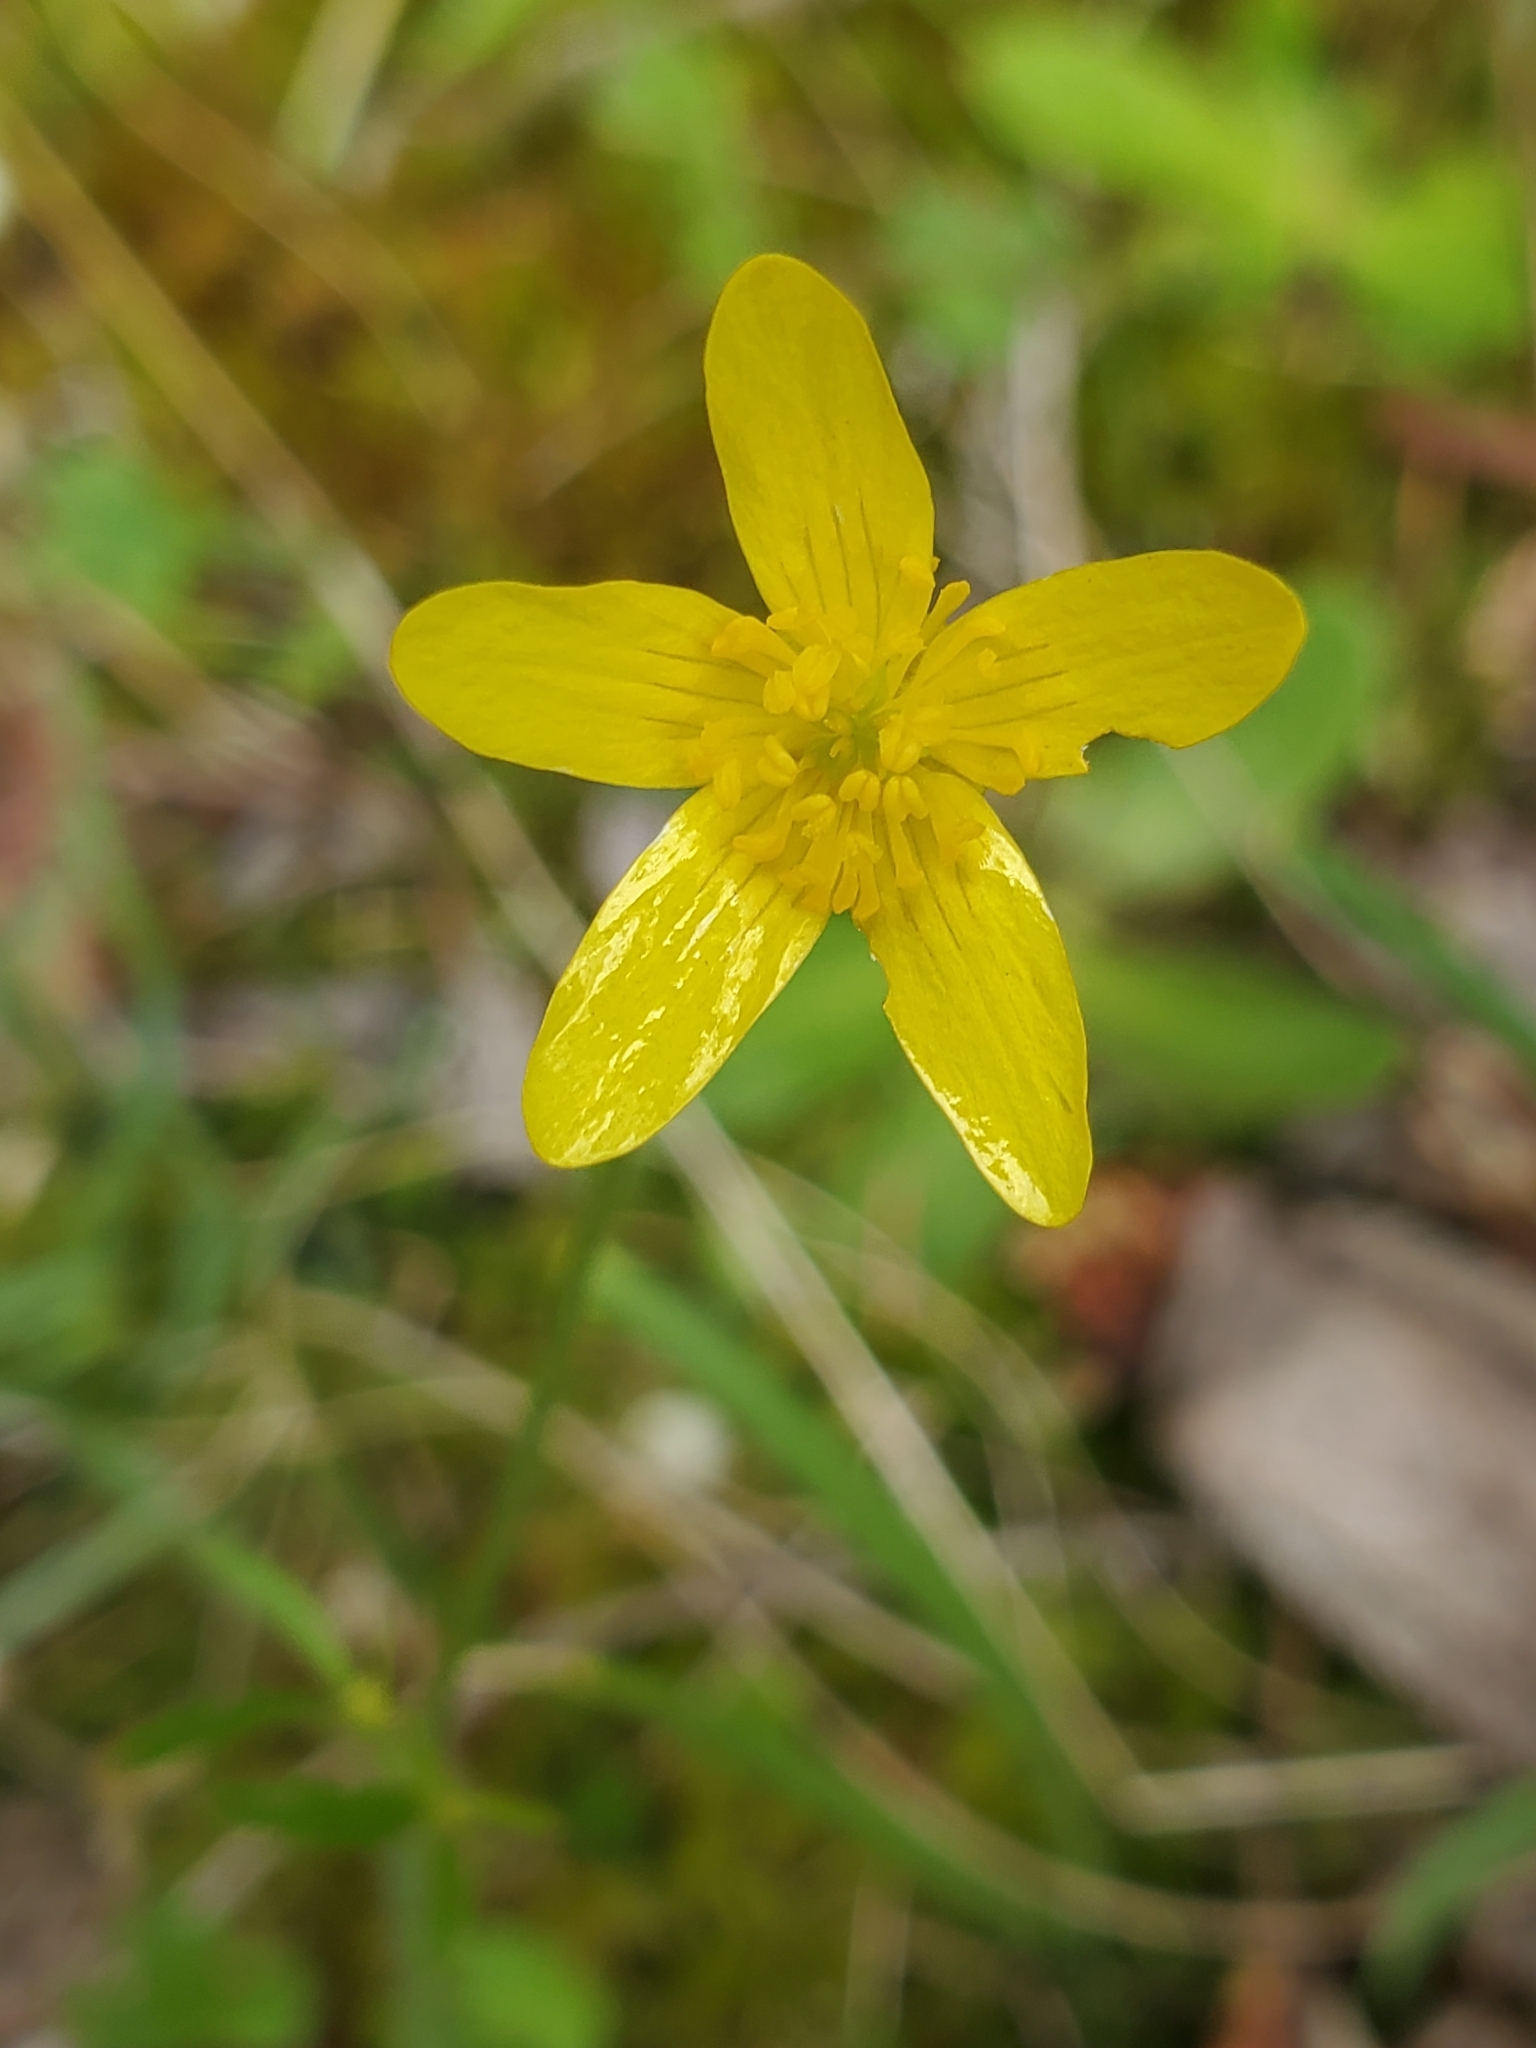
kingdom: Plantae
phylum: Tracheophyta
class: Magnoliopsida
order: Ranunculales
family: Ranunculaceae
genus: Ranunculus
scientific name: Ranunculus occidentalis
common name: Western buttercup
